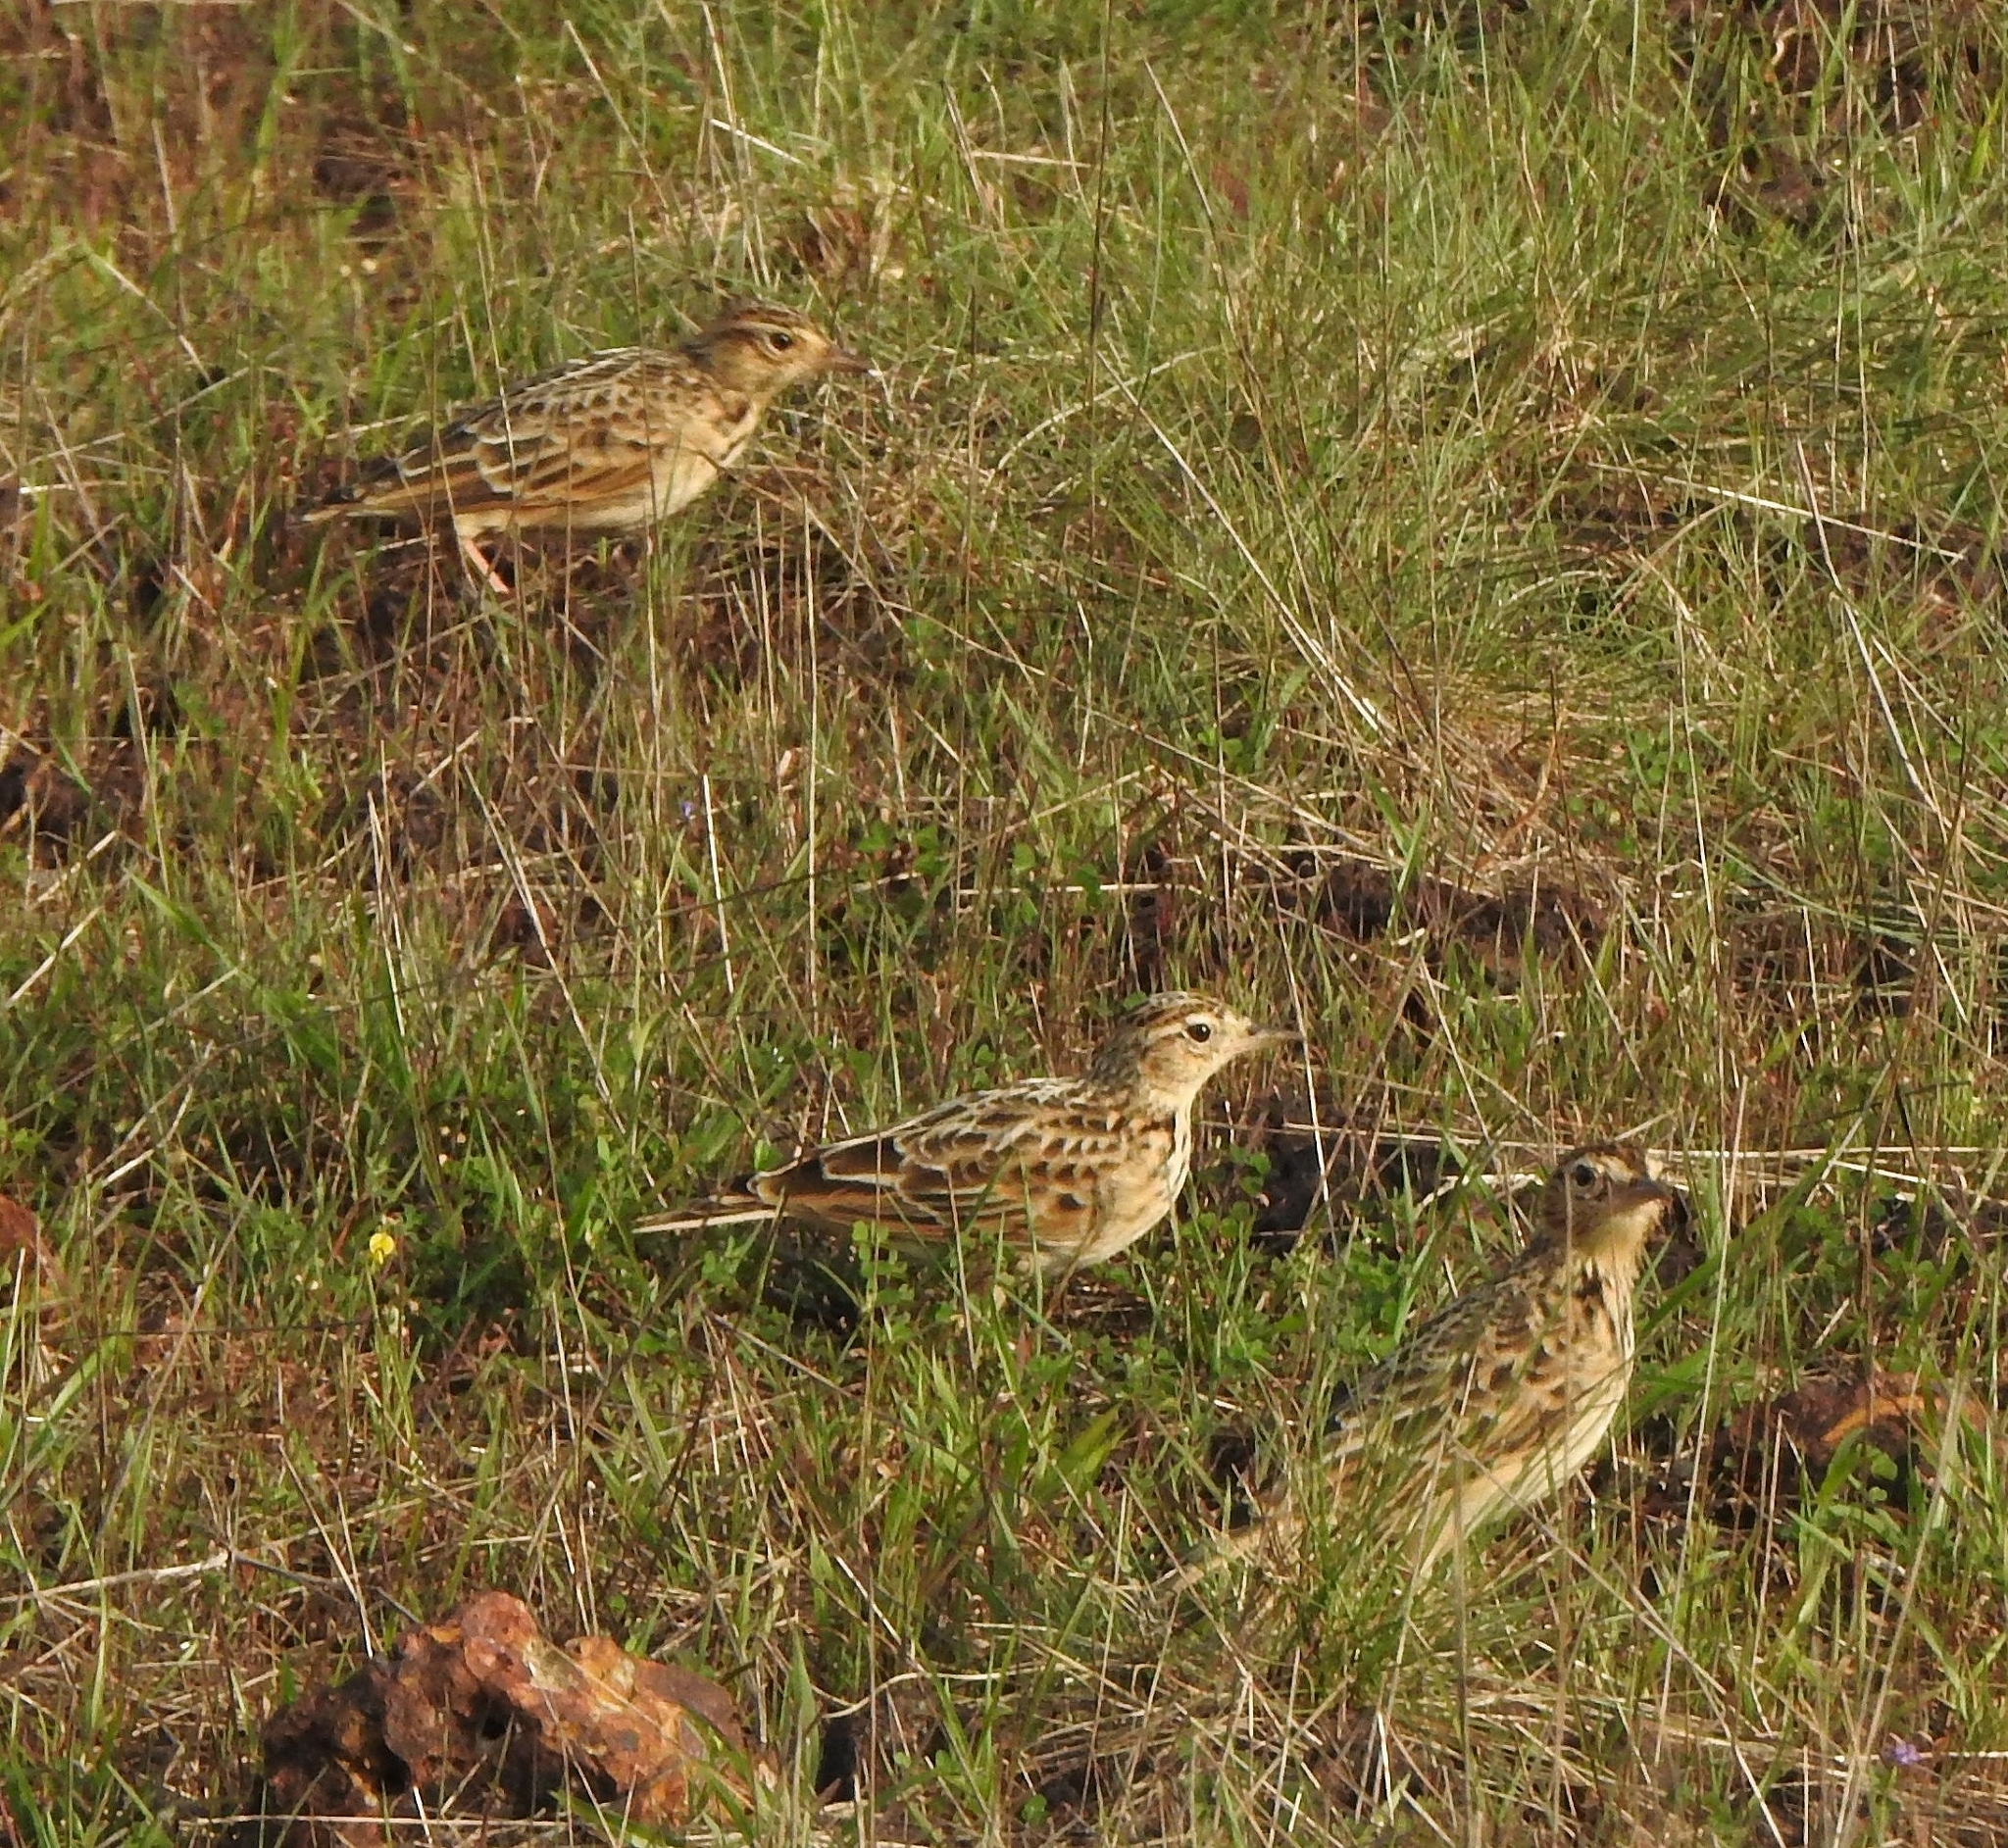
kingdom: Animalia
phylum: Chordata
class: Aves
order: Passeriformes
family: Alaudidae
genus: Alauda
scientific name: Alauda gulgula
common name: Oriental skylark
